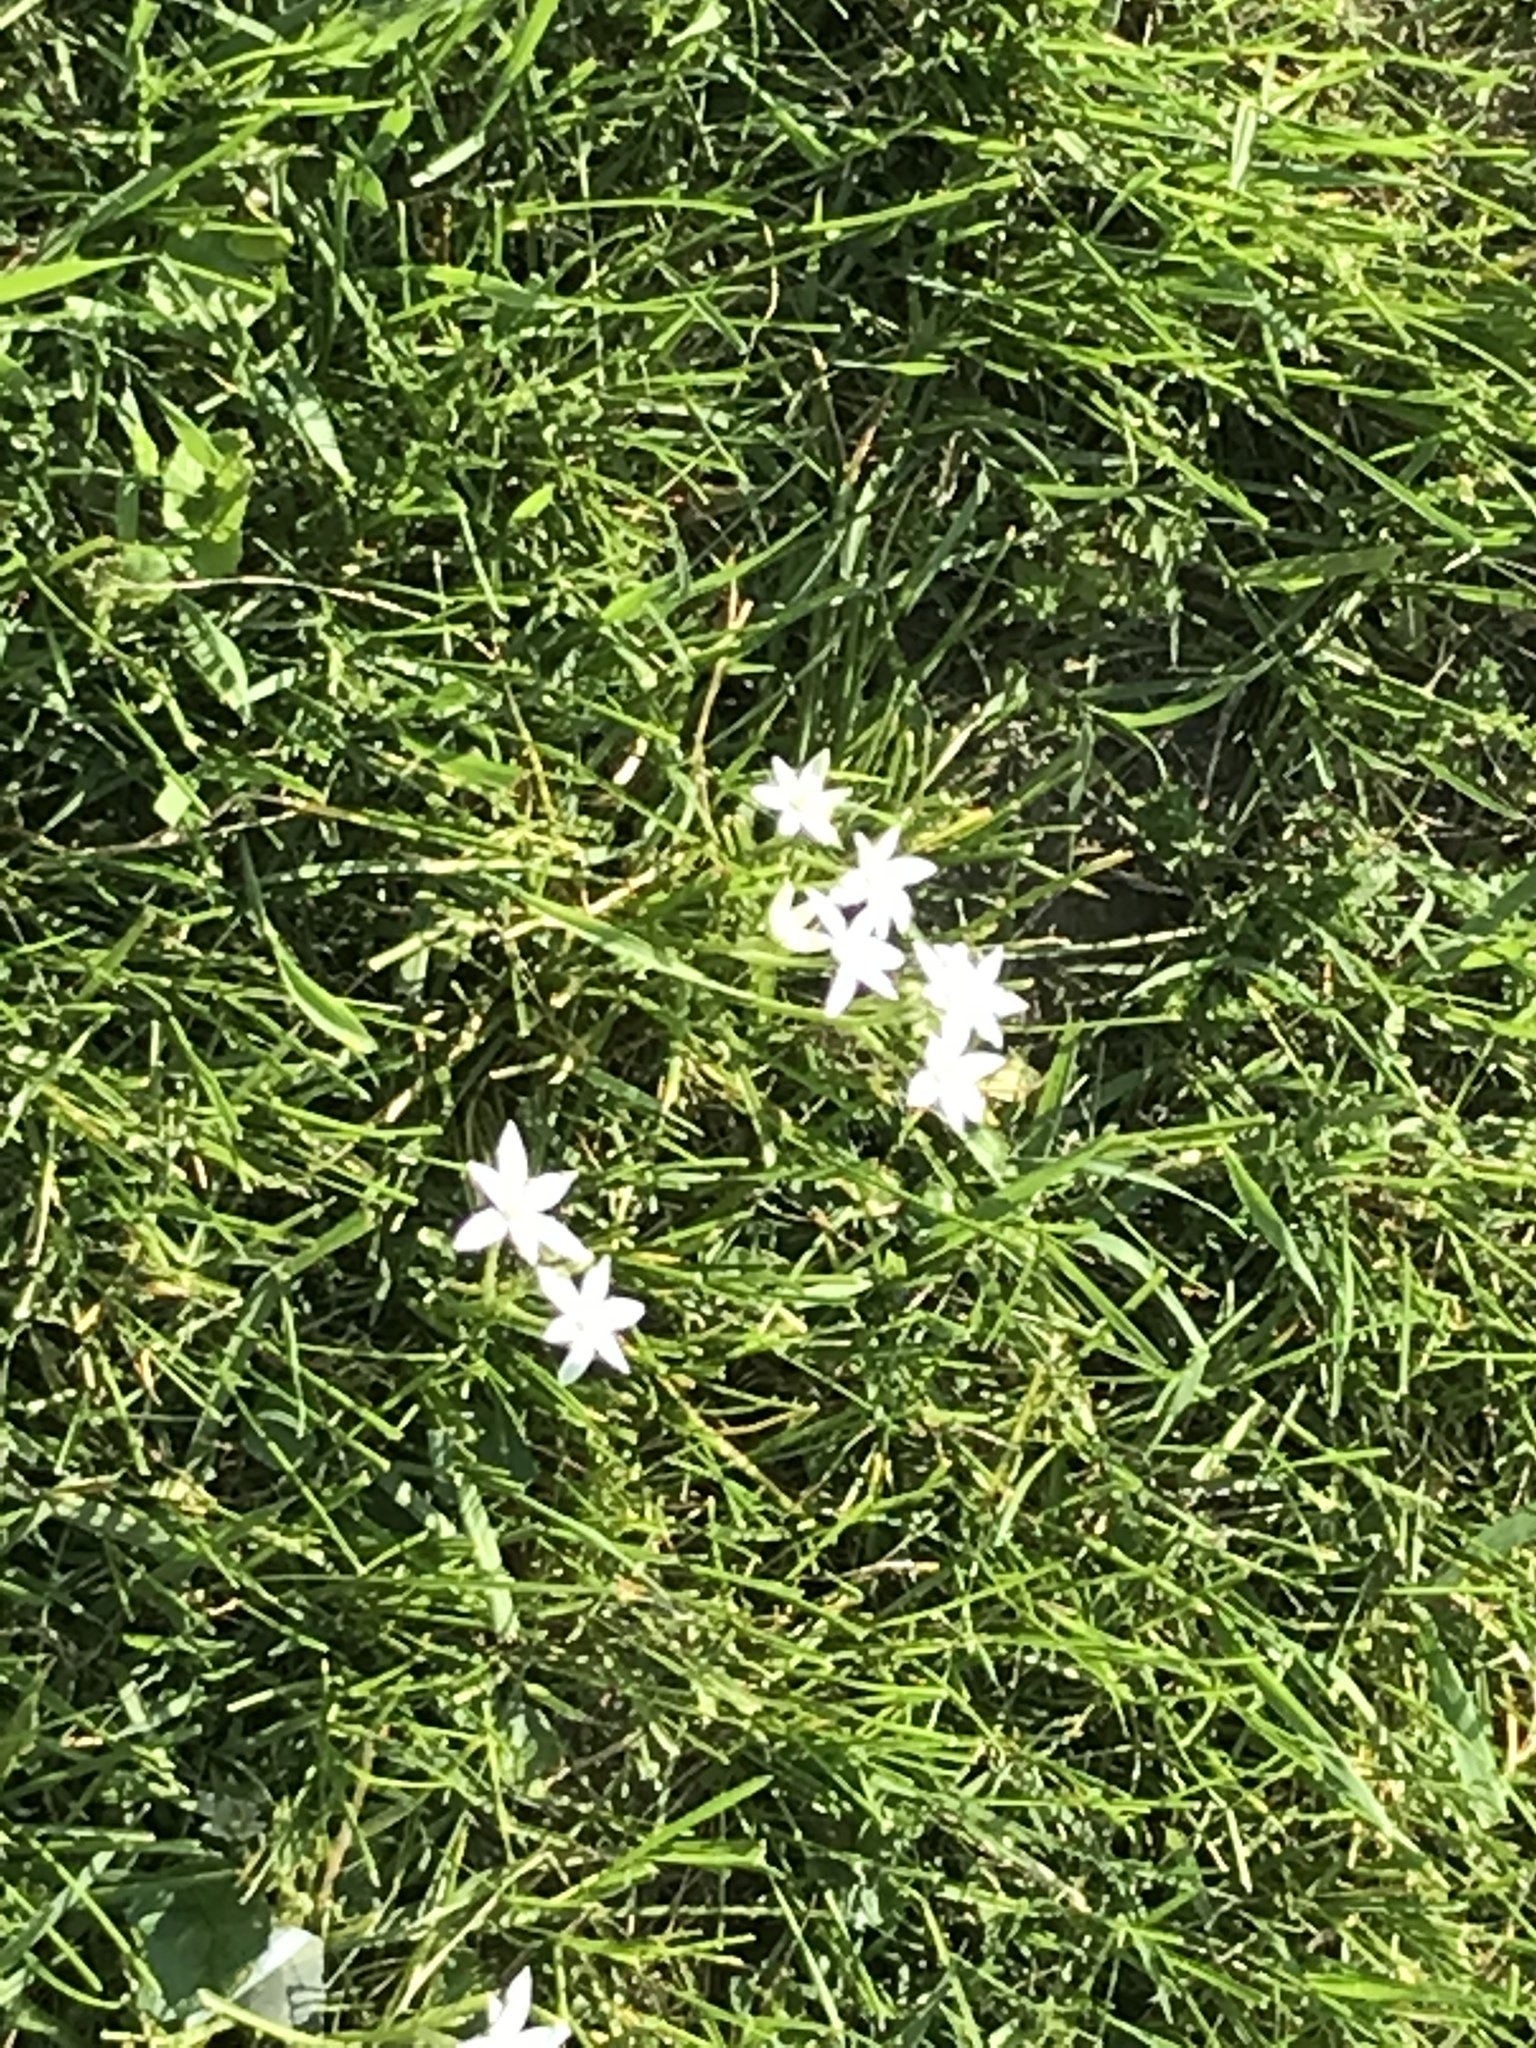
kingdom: Plantae
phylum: Tracheophyta
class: Liliopsida
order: Asparagales
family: Asparagaceae
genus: Ornithogalum
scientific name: Ornithogalum umbellatum
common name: Garden star-of-bethlehem
